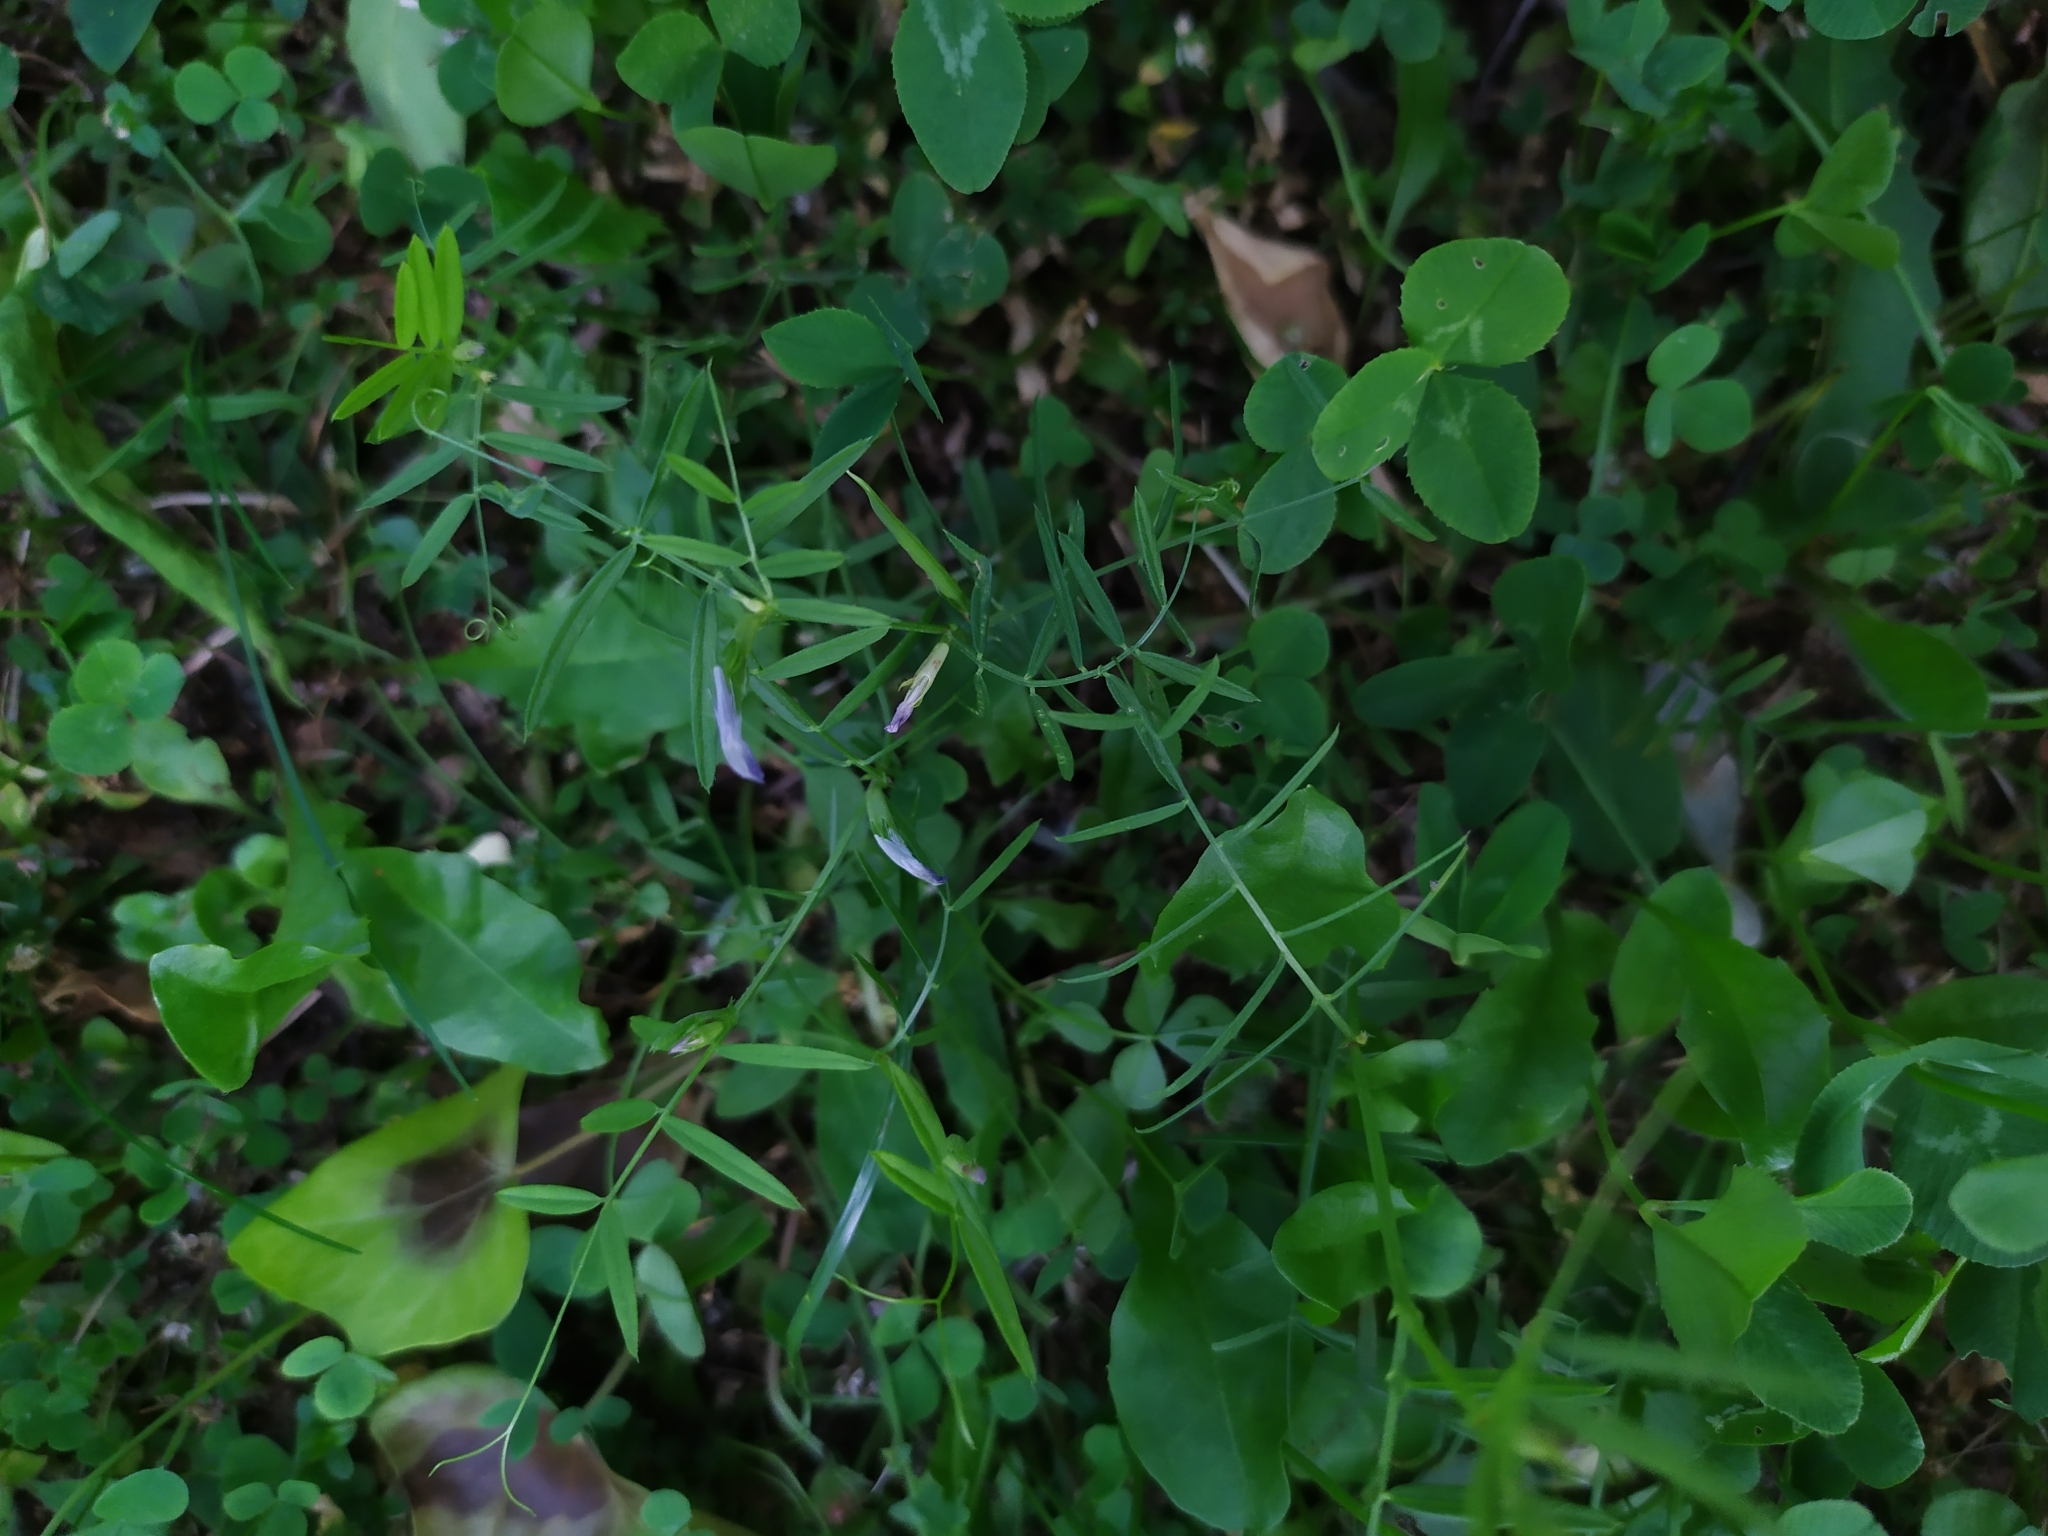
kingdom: Plantae
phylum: Tracheophyta
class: Magnoliopsida
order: Fabales
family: Fabaceae
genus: Vicia
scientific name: Vicia sativa
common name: Garden vetch
